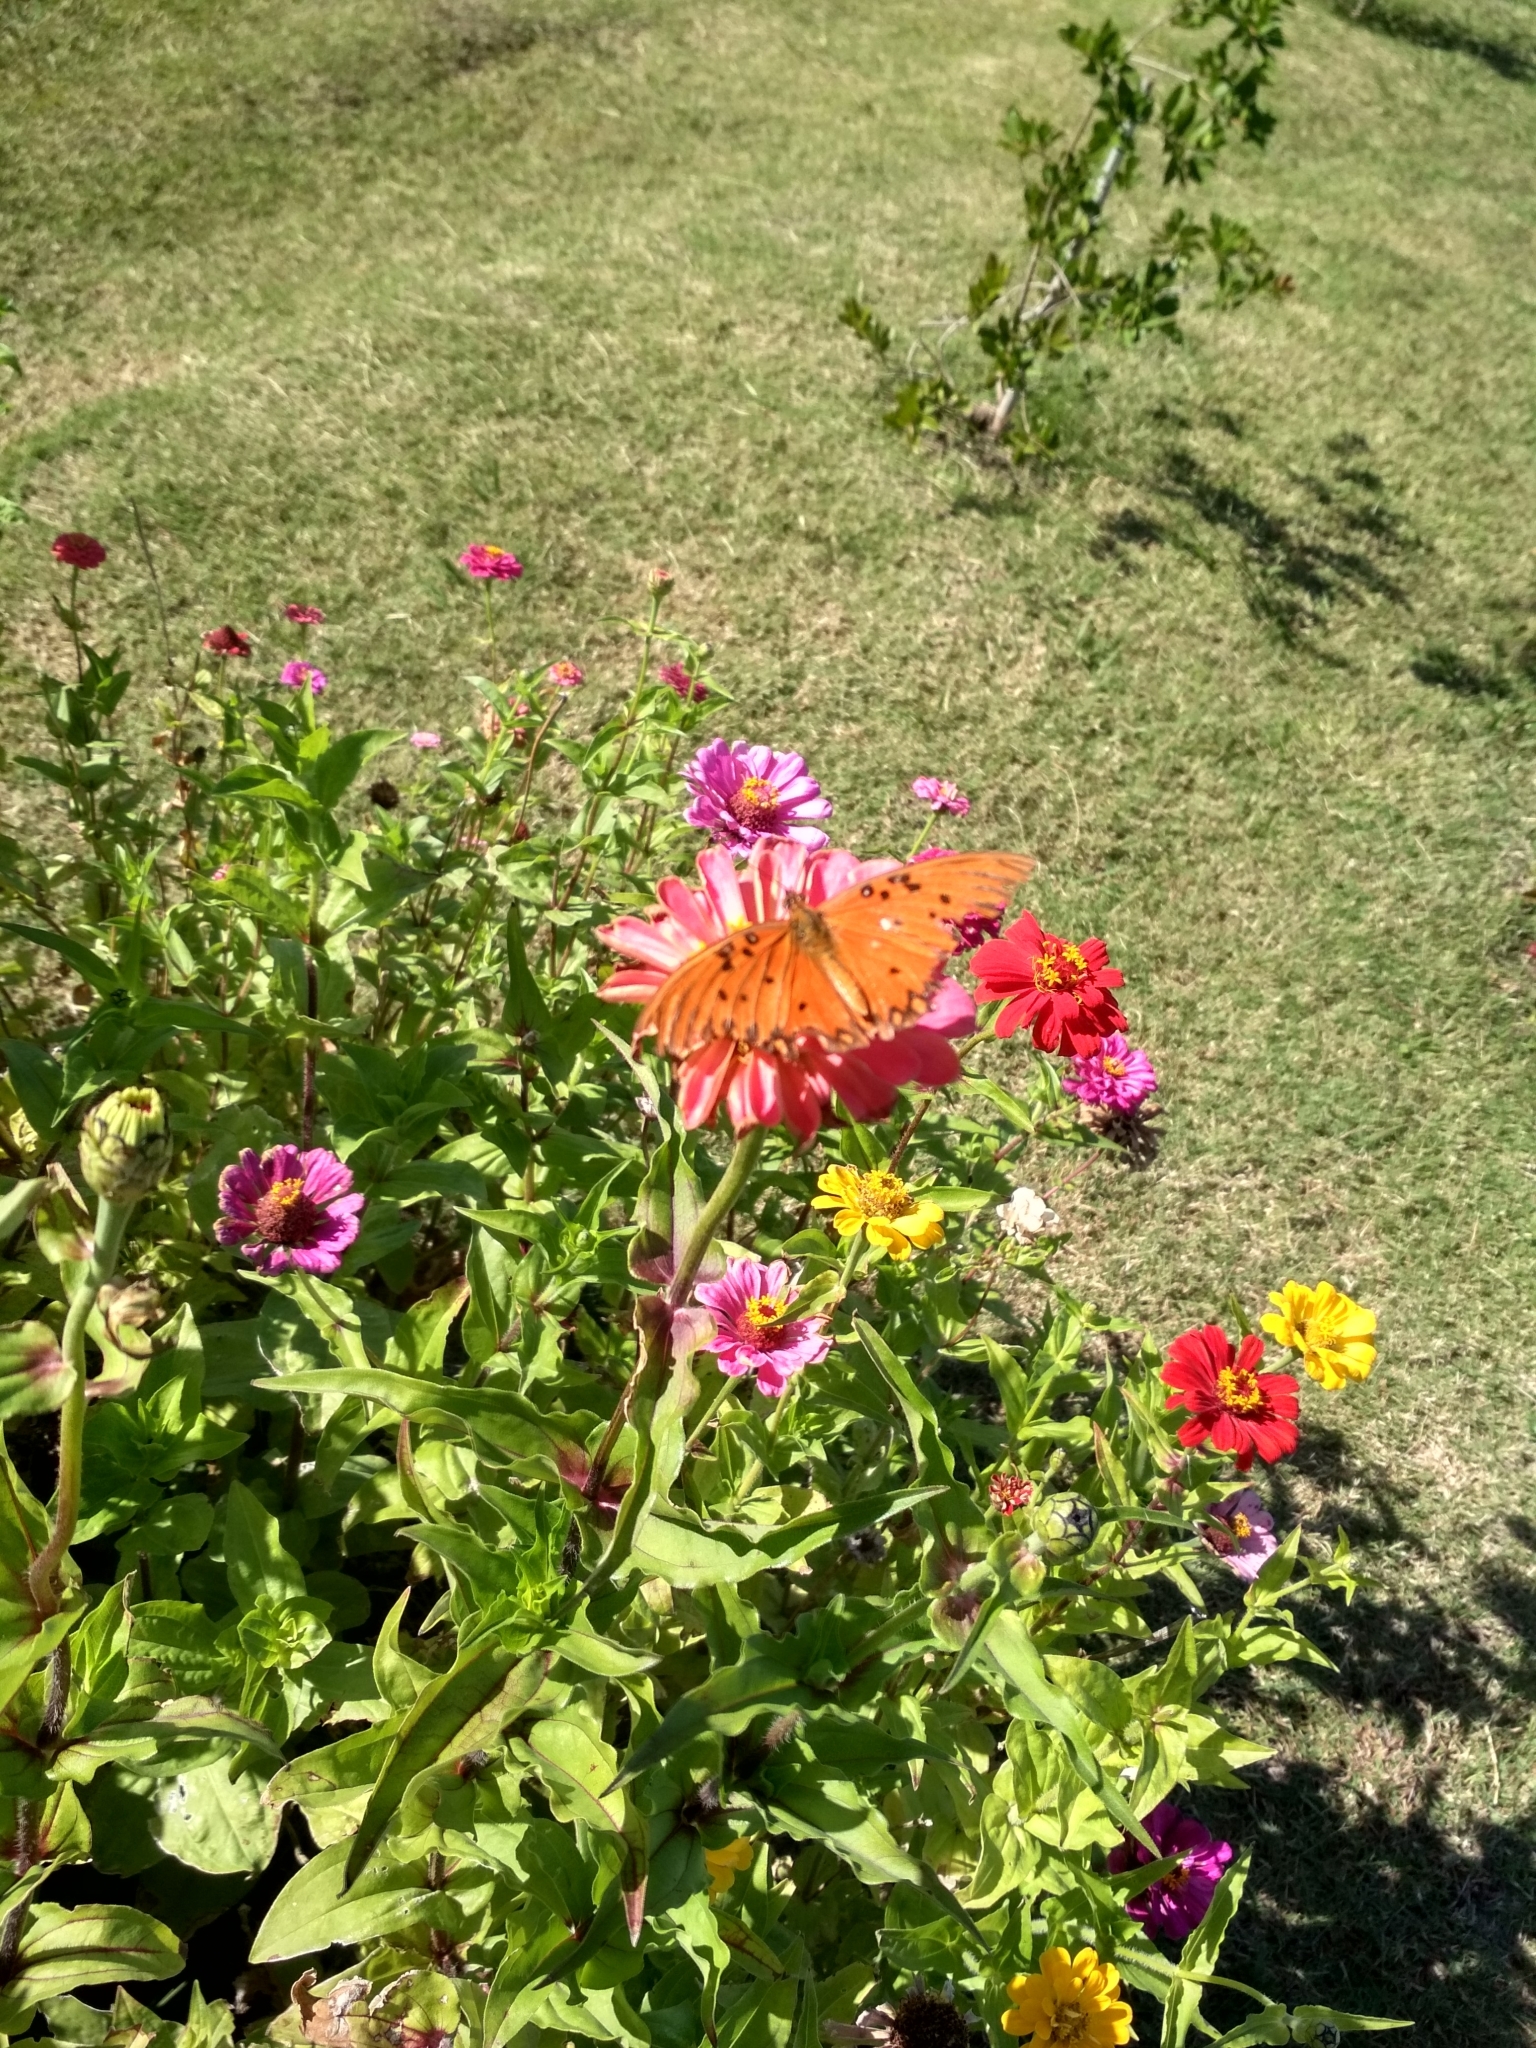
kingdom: Animalia
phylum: Arthropoda
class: Insecta
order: Lepidoptera
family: Nymphalidae
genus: Dione
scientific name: Dione vanillae
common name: Gulf fritillary
